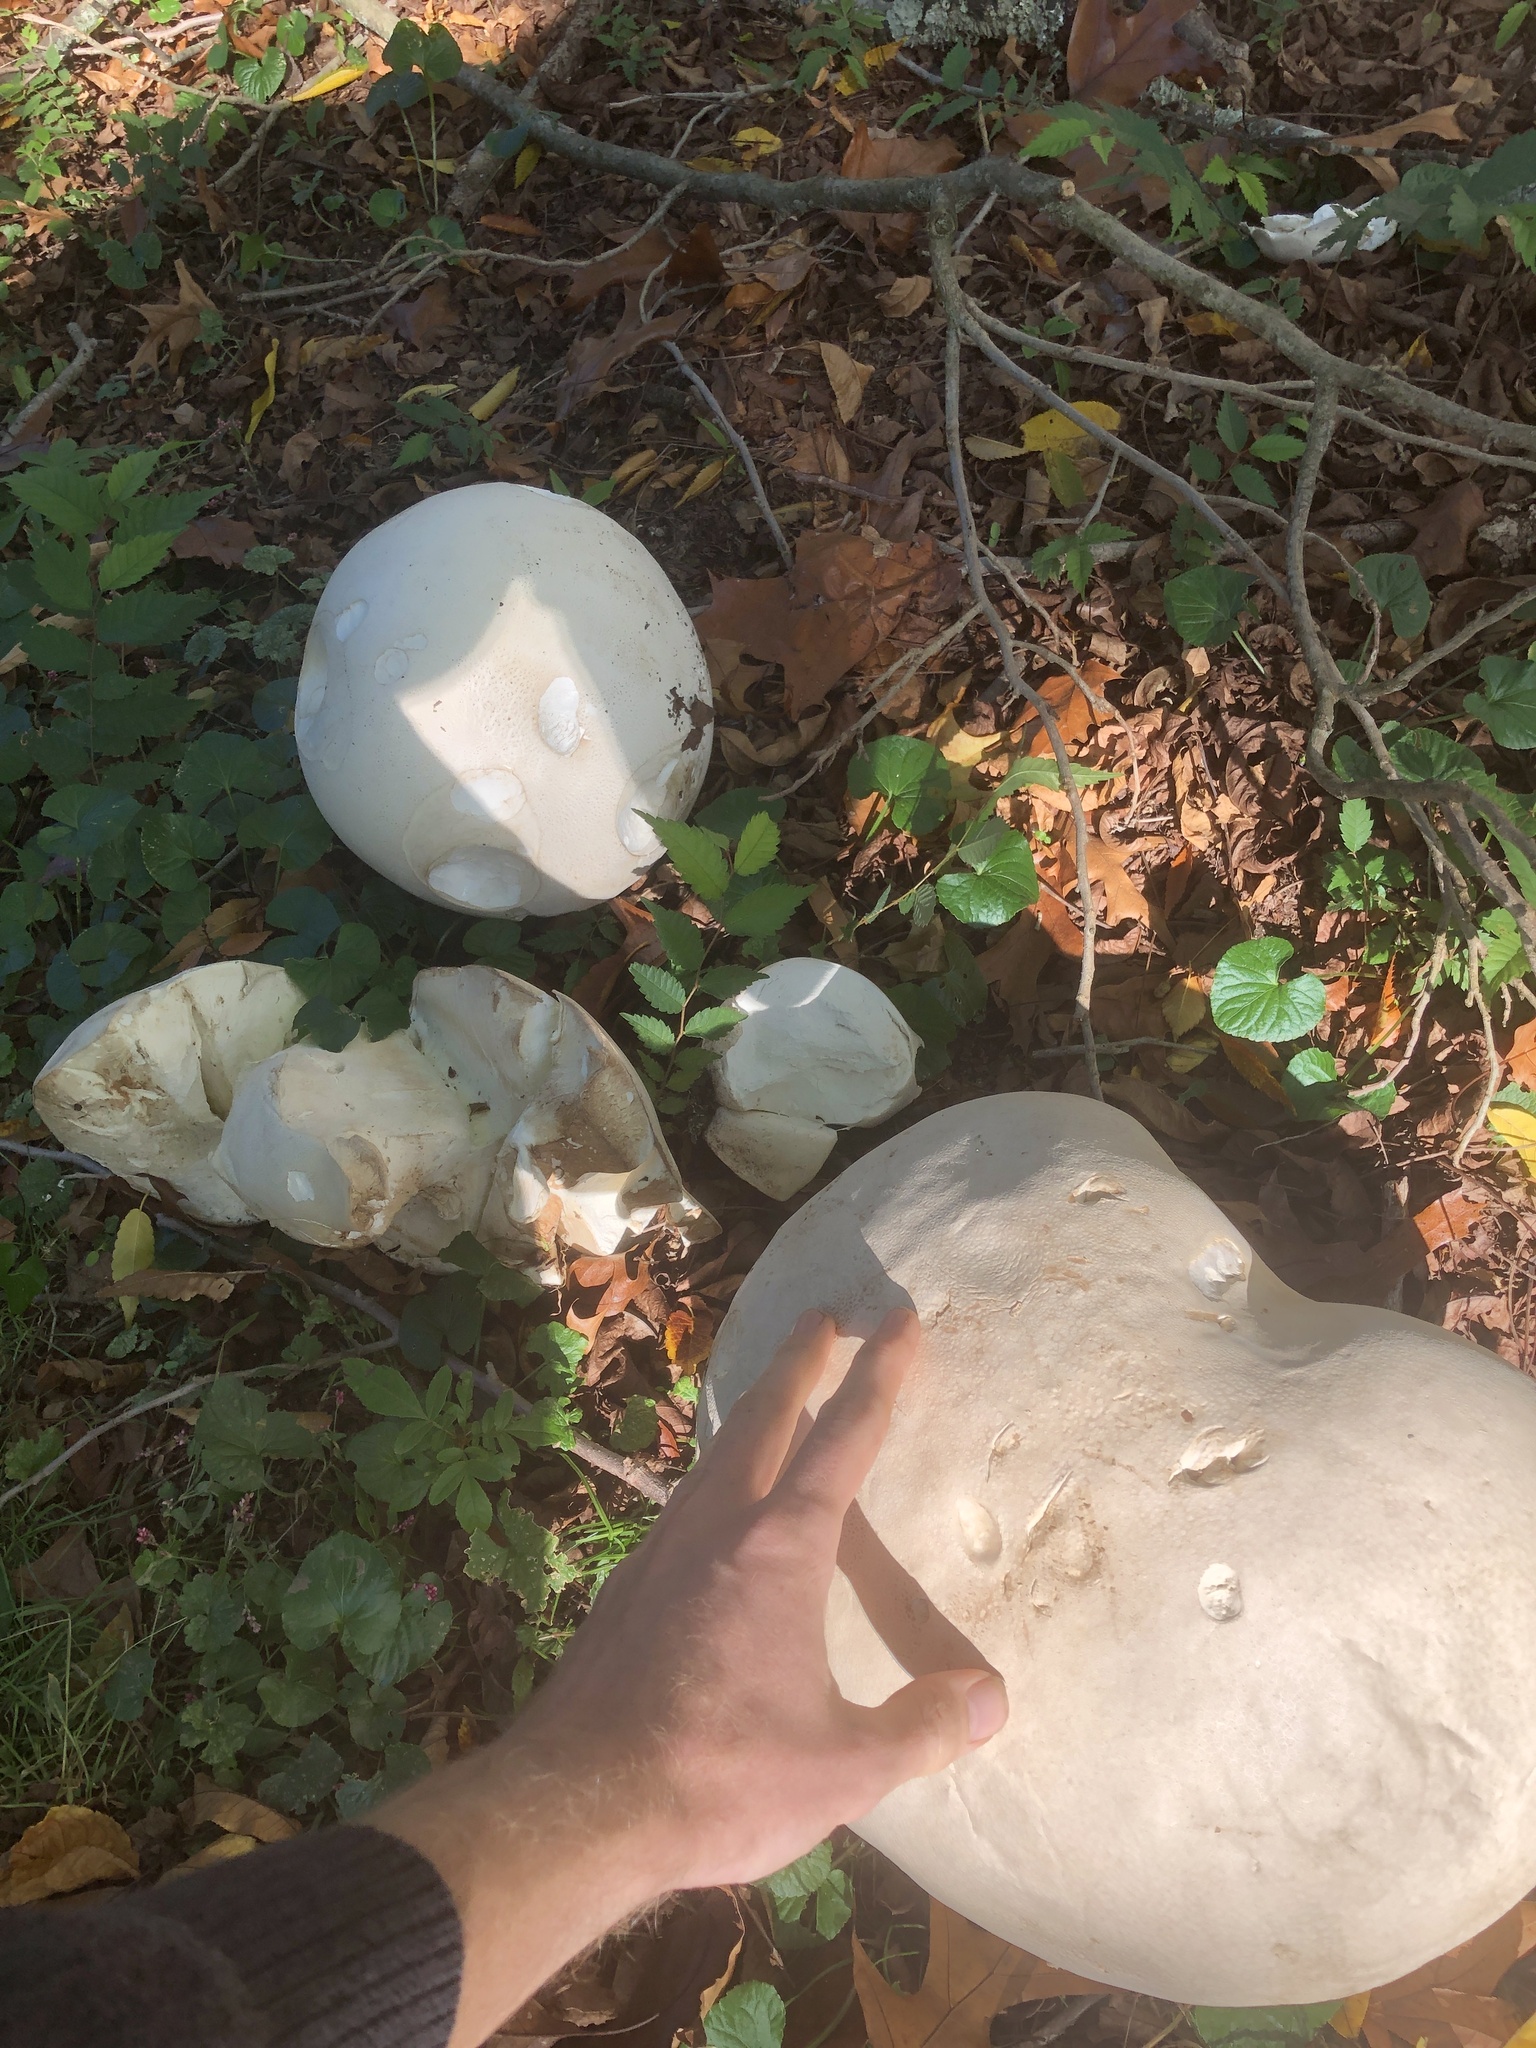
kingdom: Fungi
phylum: Basidiomycota
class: Agaricomycetes
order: Agaricales
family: Lycoperdaceae
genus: Calvatia
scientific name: Calvatia gigantea
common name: Giant puffball
